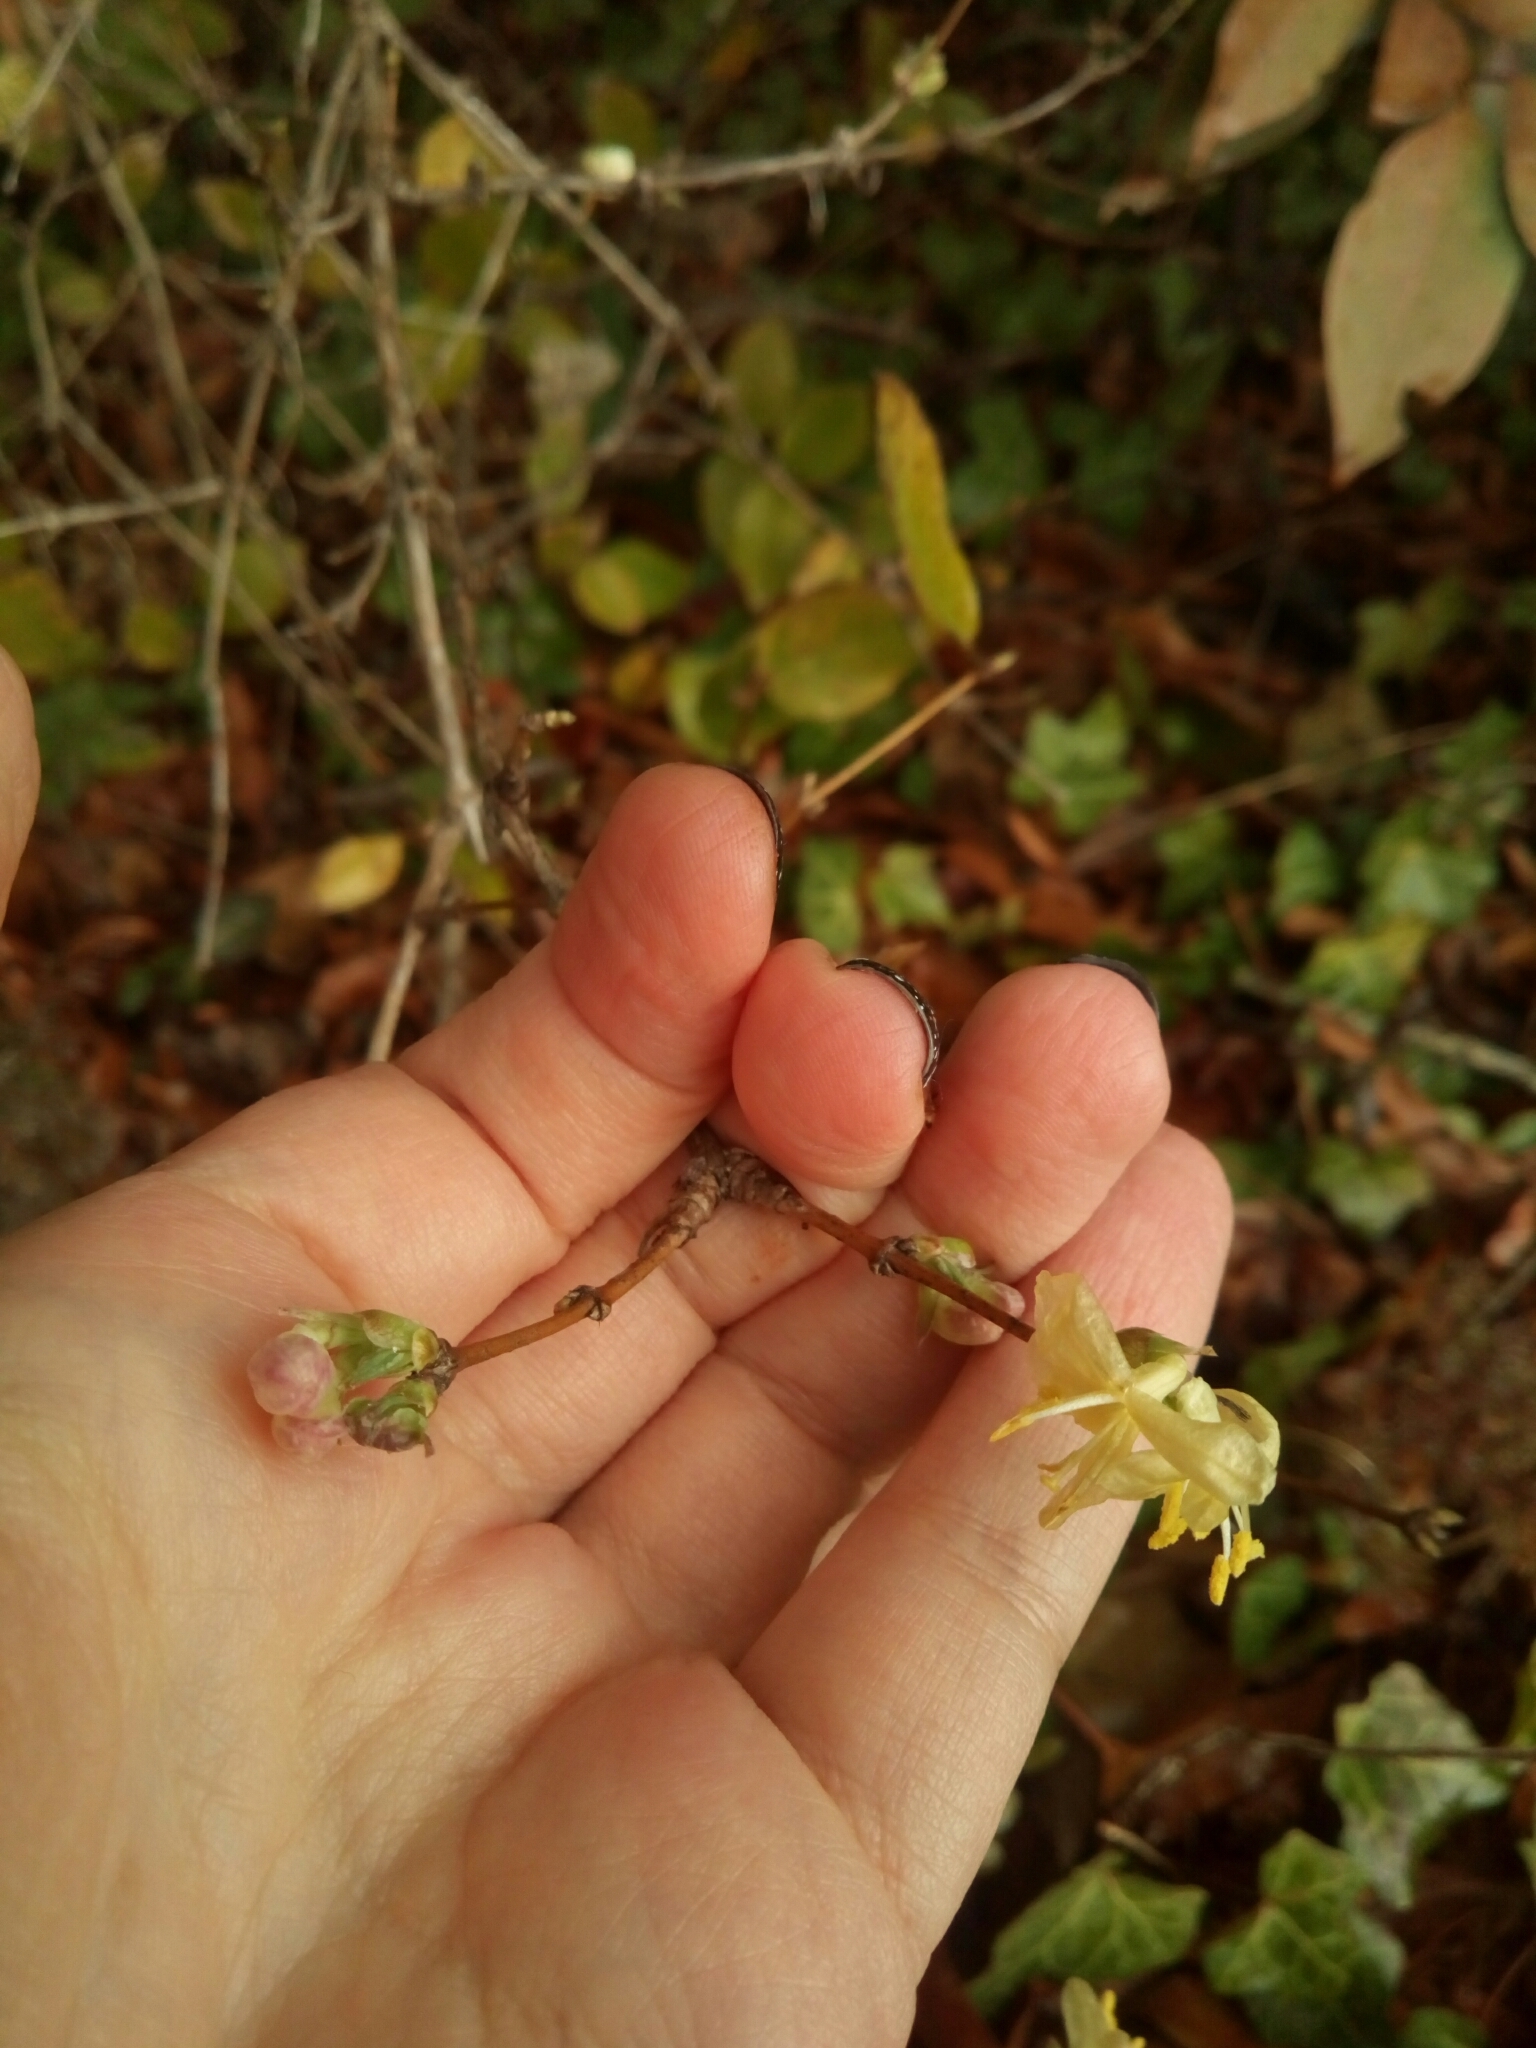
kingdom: Plantae
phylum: Tracheophyta
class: Magnoliopsida
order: Dipsacales
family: Caprifoliaceae
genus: Lonicera
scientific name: Lonicera fragrantissima
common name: Fragrant honeysuckle
